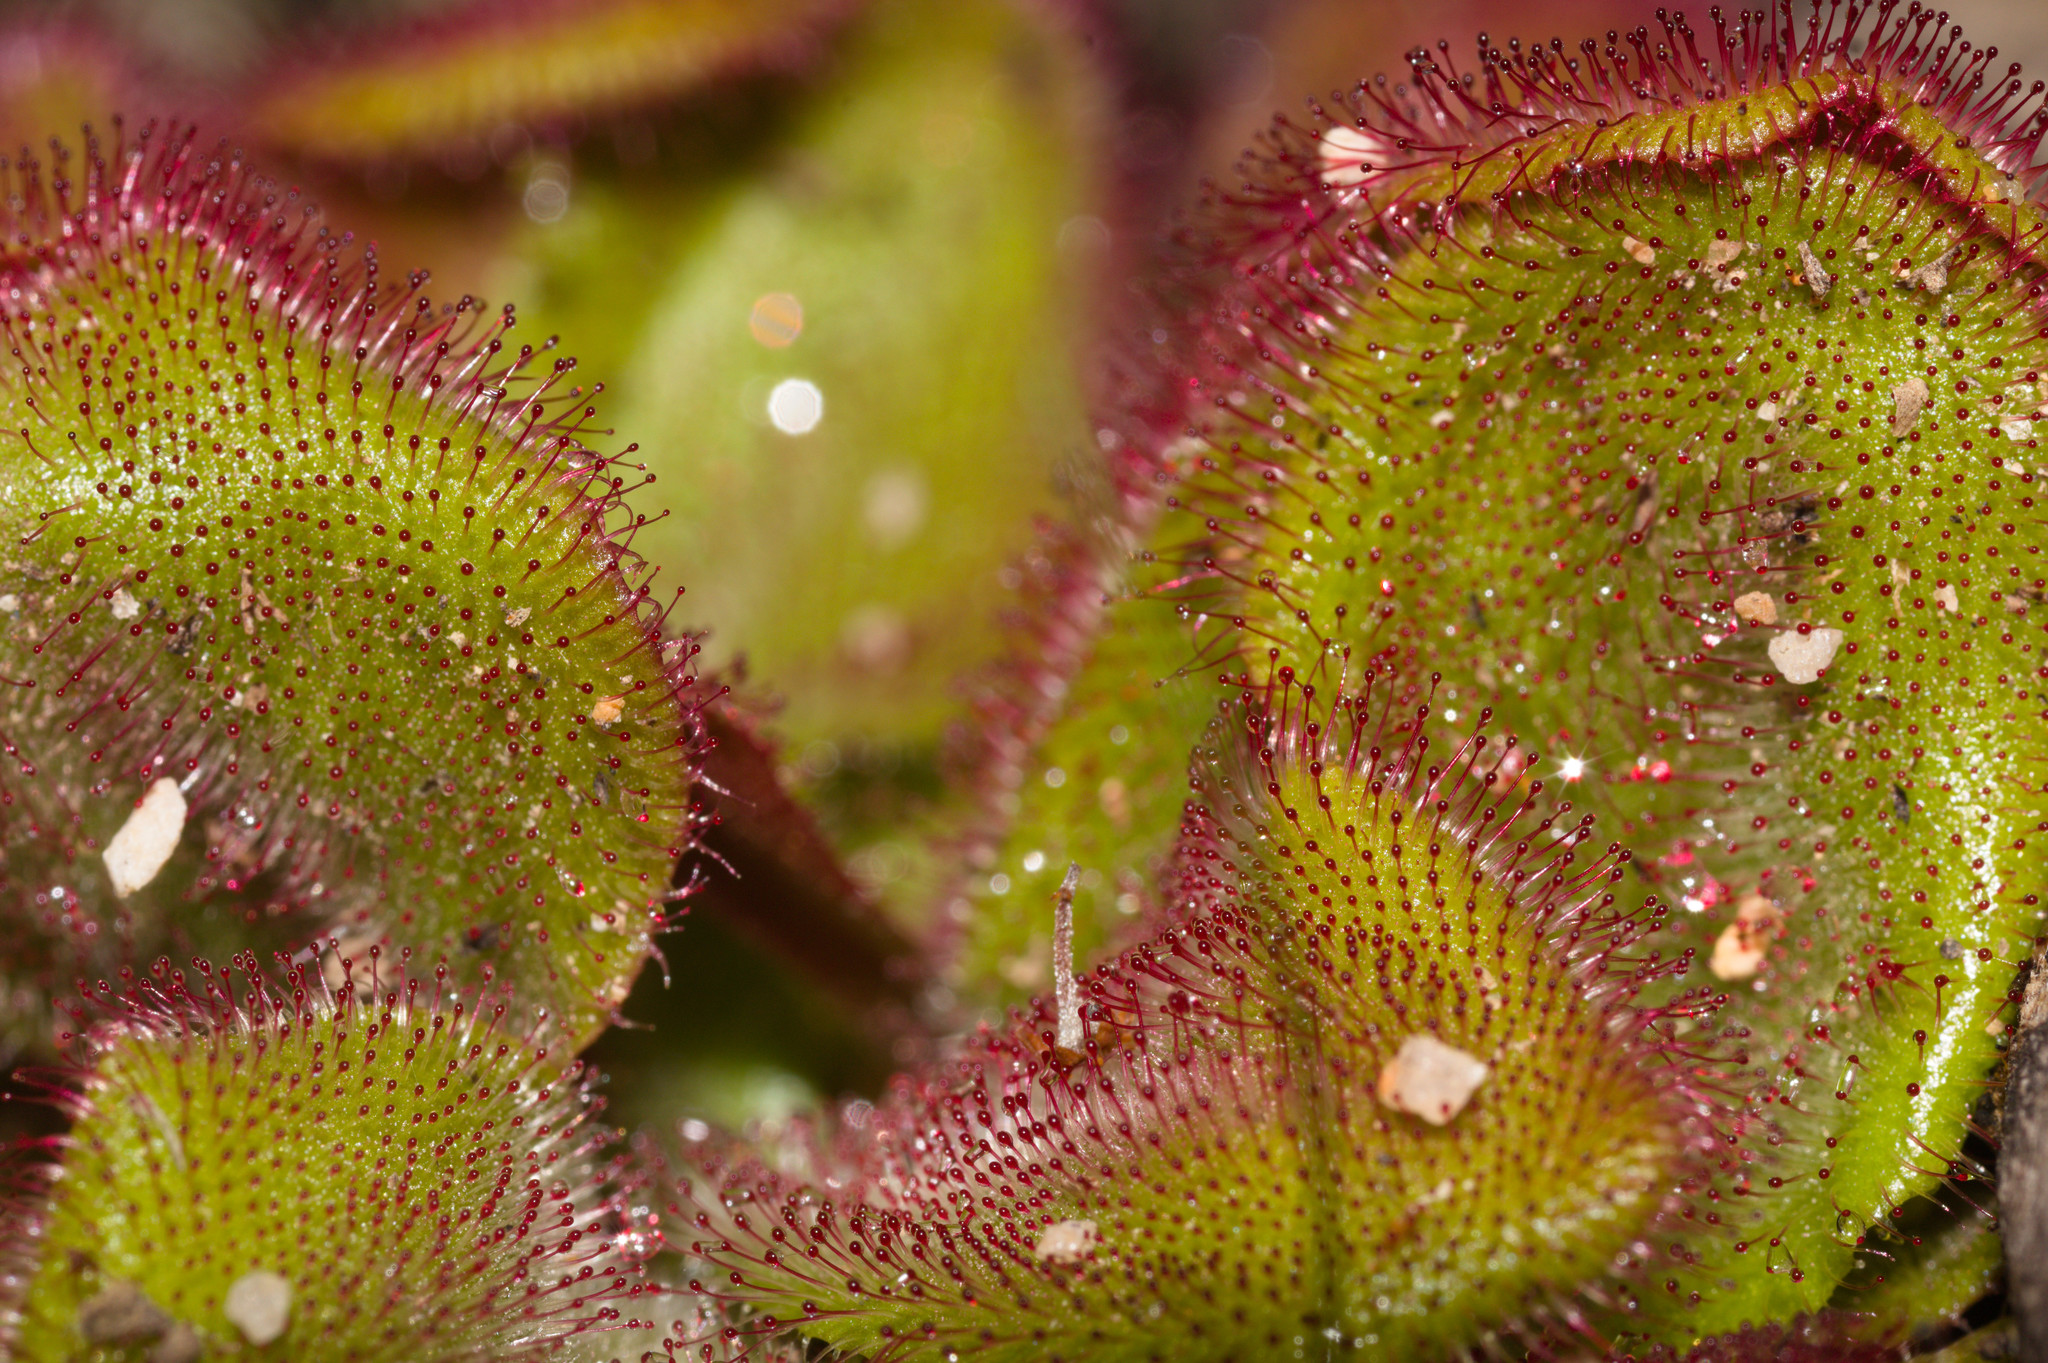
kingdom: Plantae
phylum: Tracheophyta
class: Magnoliopsida
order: Caryophyllales
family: Droseraceae
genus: Drosera
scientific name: Drosera erythrorhiza
